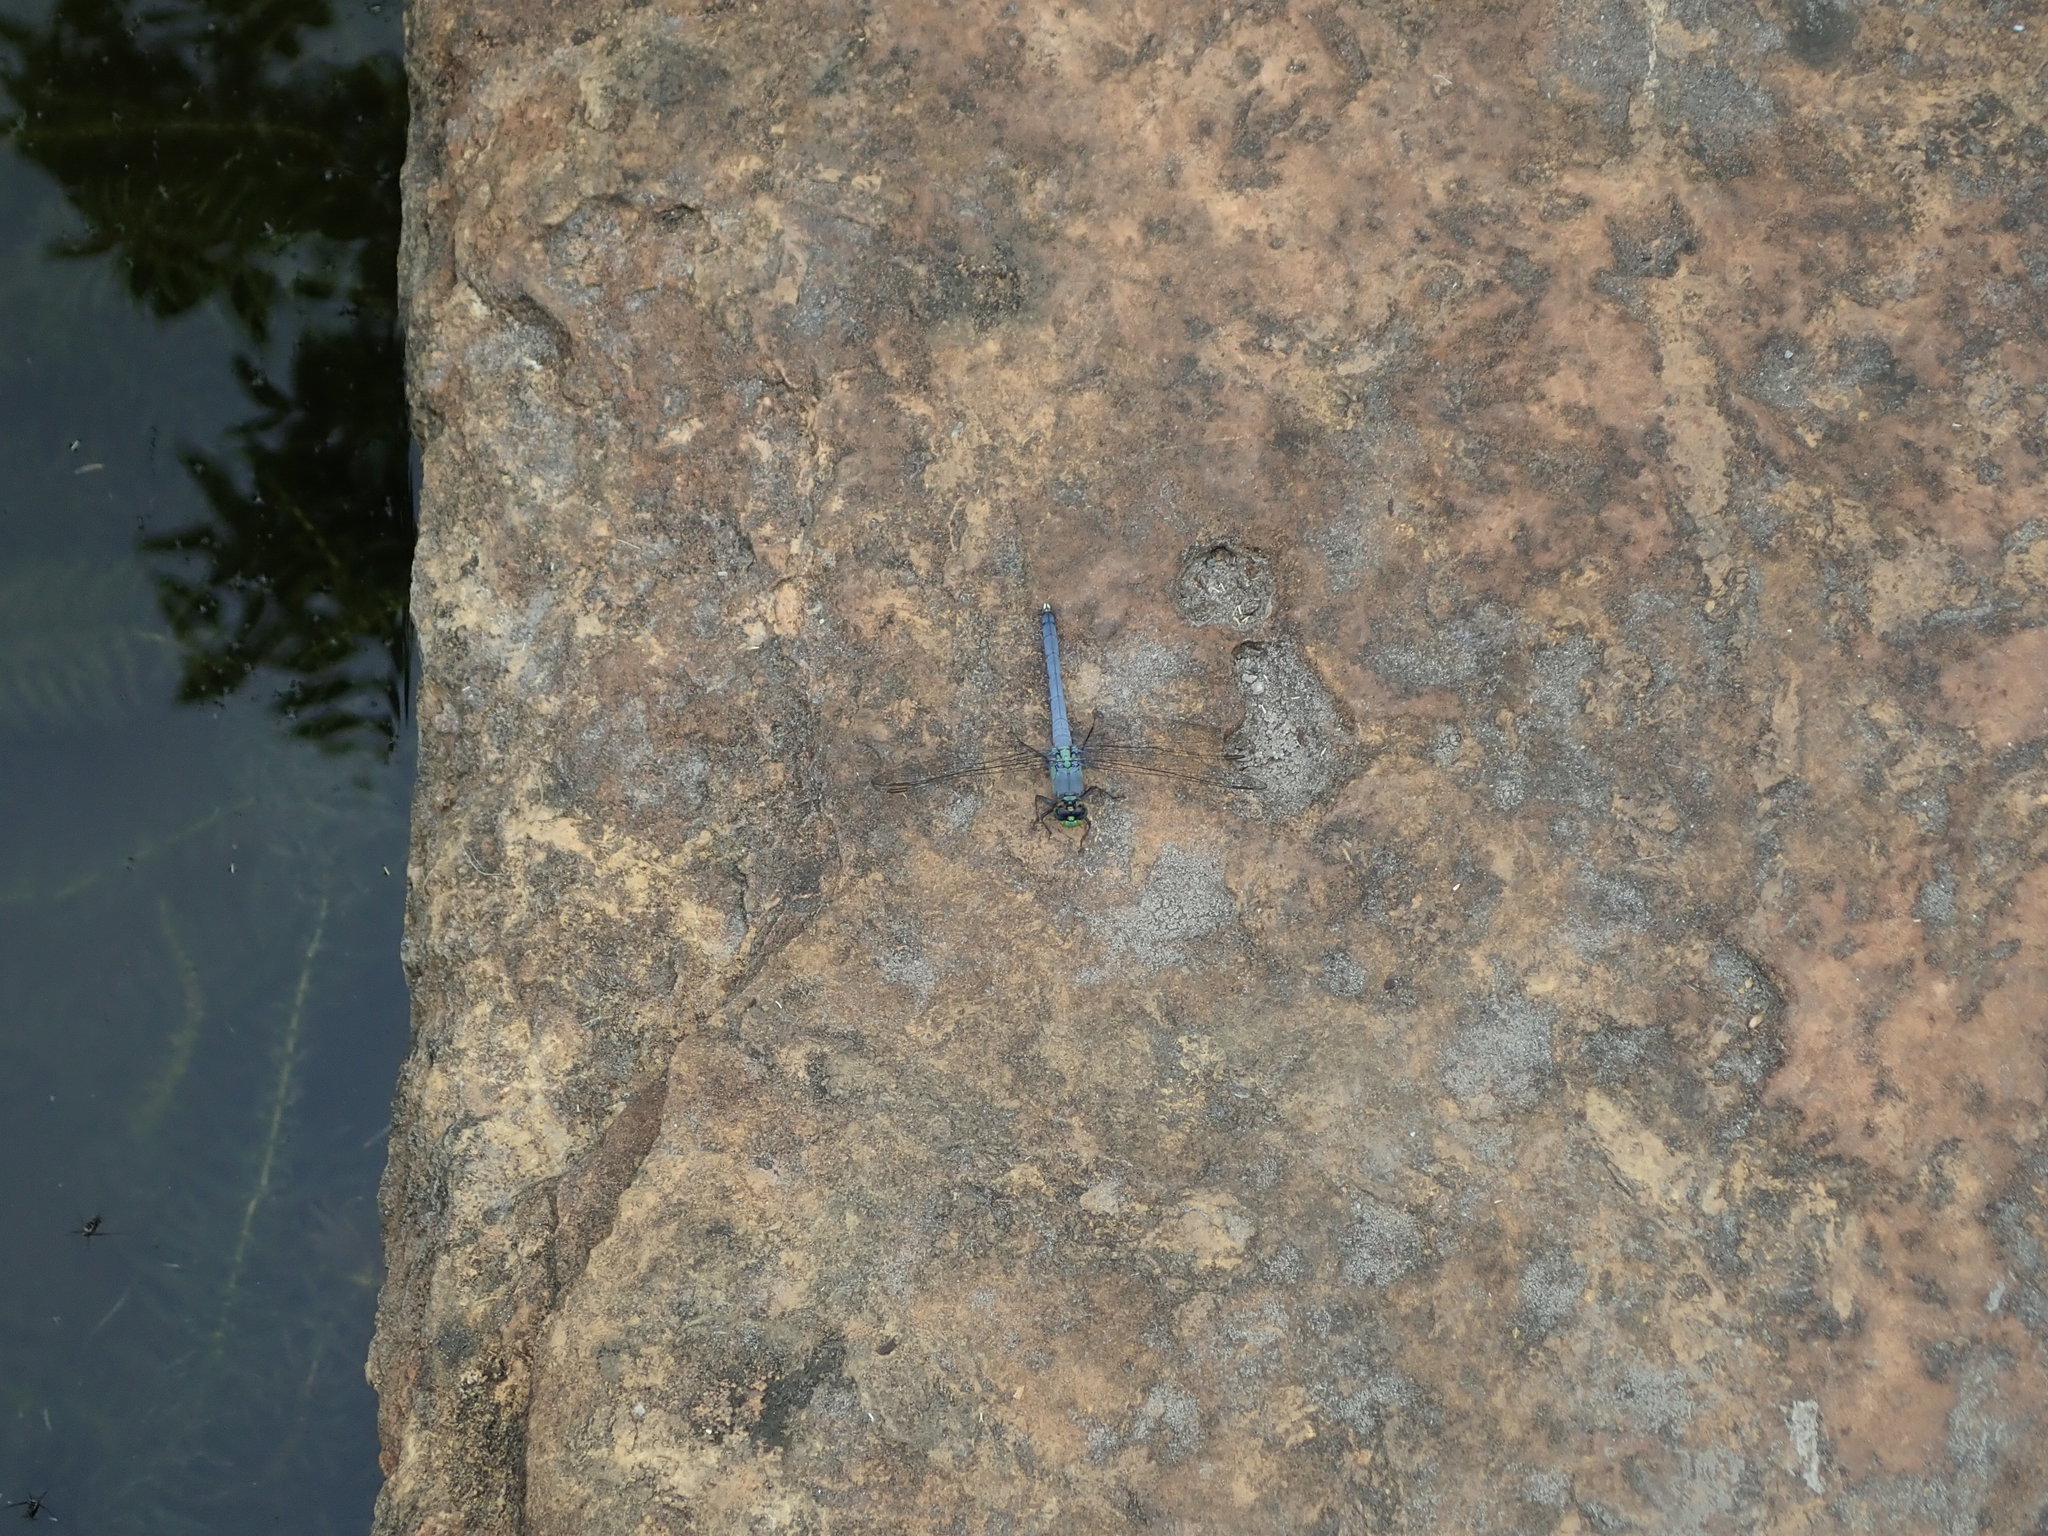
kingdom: Animalia
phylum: Arthropoda
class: Insecta
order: Odonata
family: Libellulidae
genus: Erythemis
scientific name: Erythemis simplicicollis
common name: Eastern pondhawk
